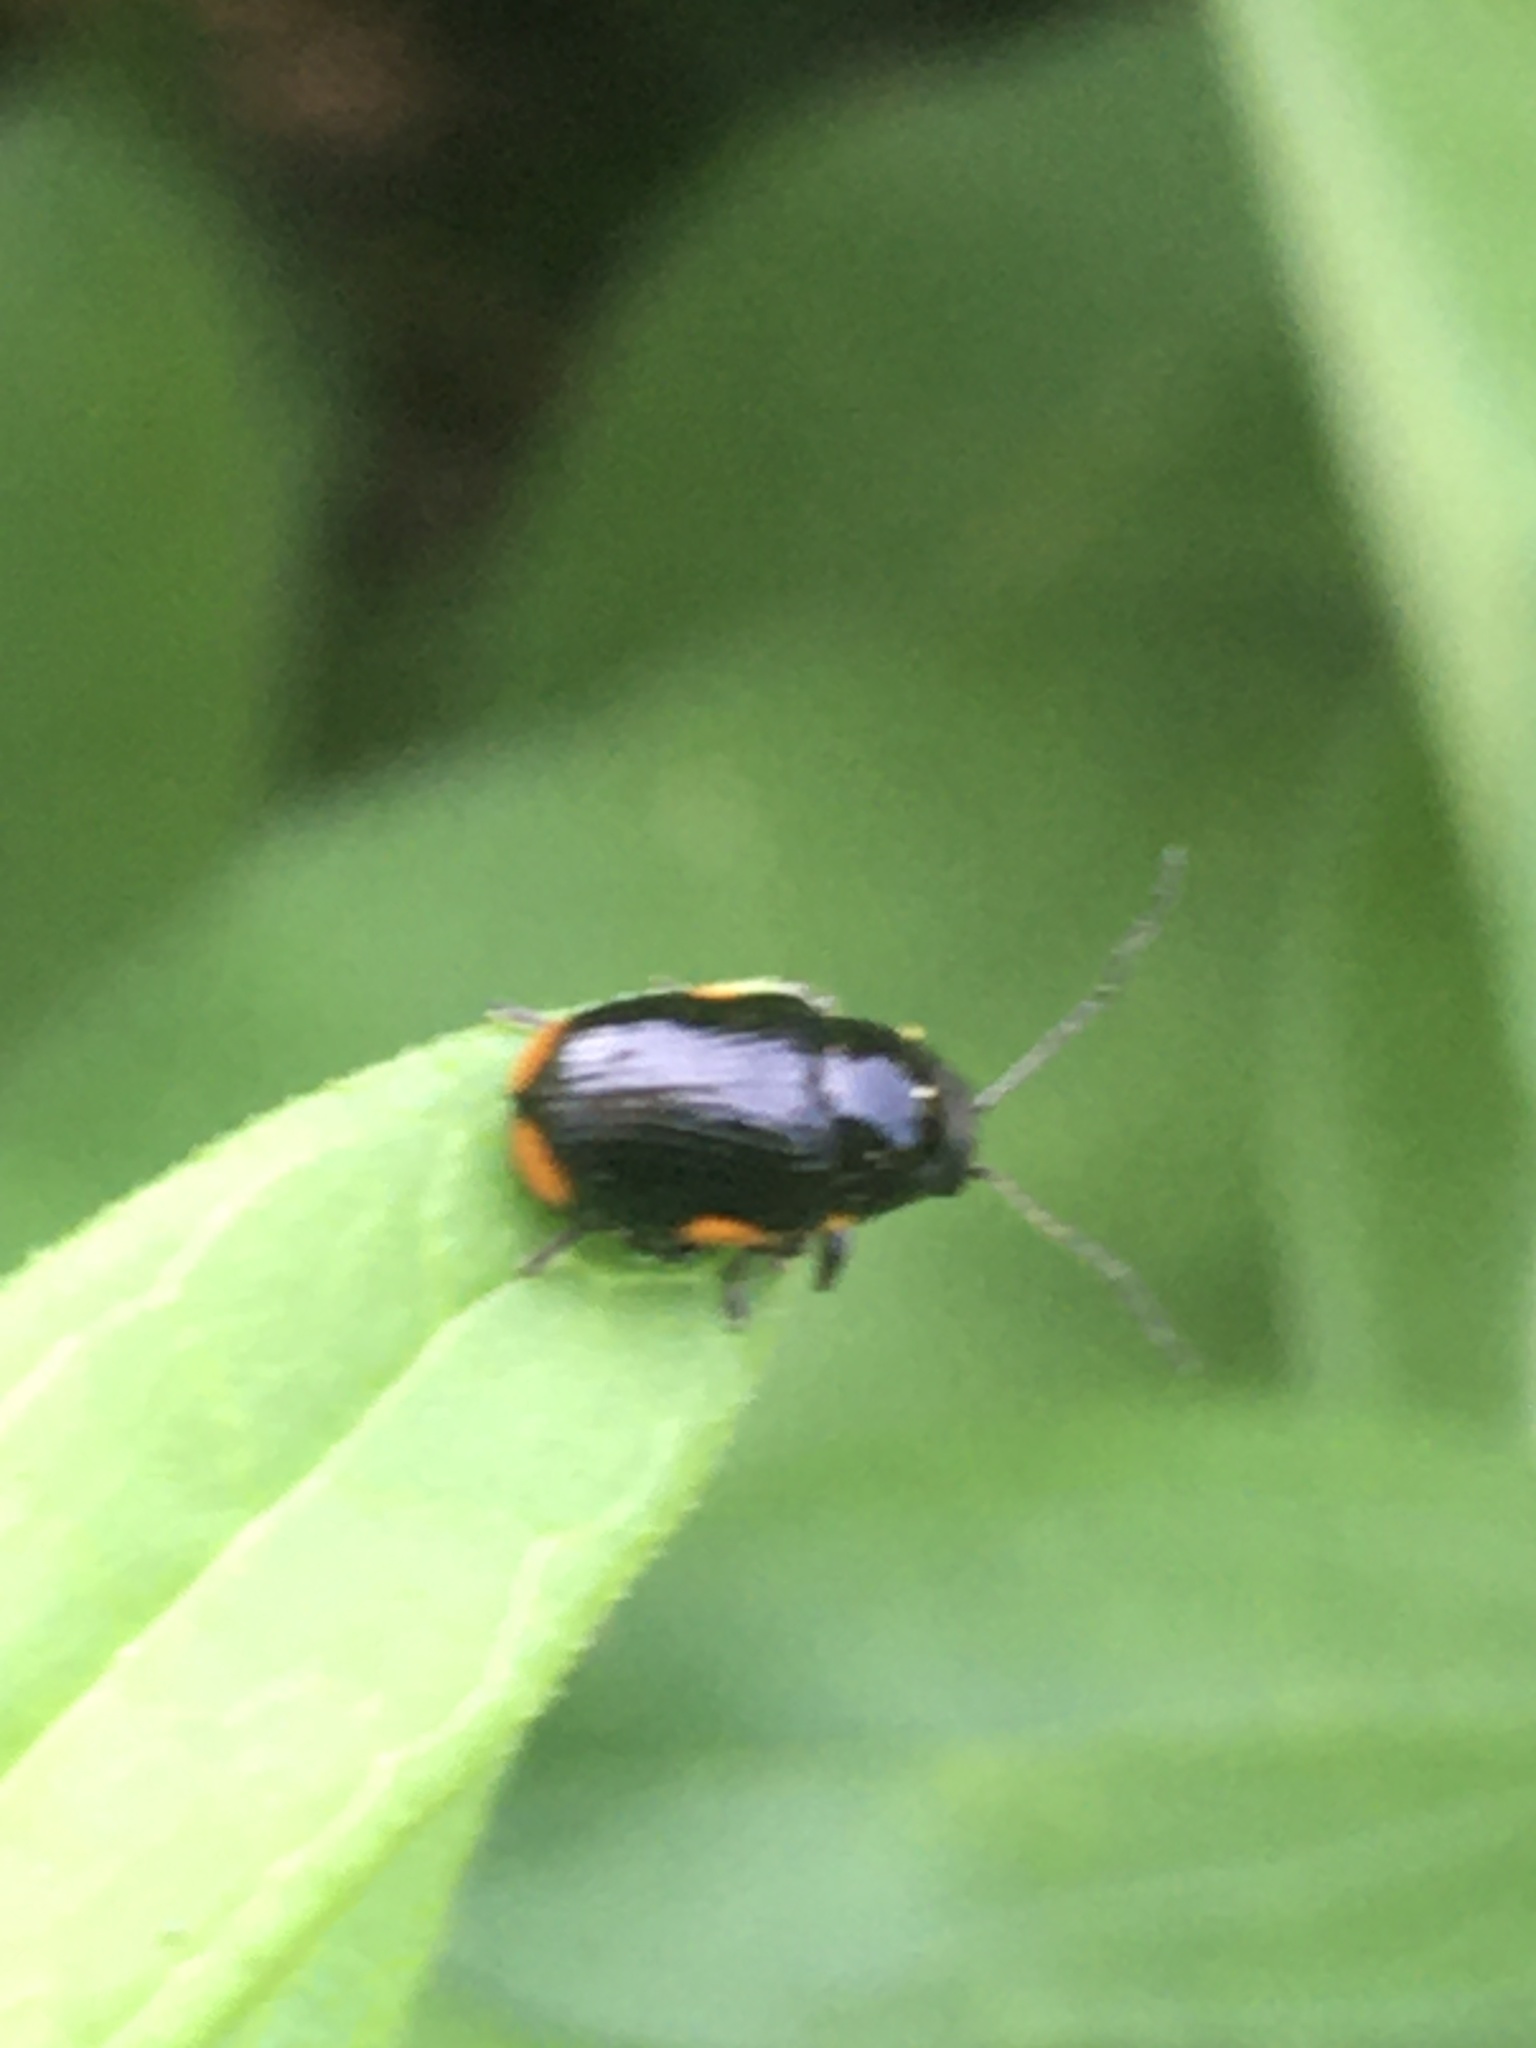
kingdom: Animalia
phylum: Arthropoda
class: Insecta
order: Coleoptera
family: Chrysomelidae
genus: Cryptocephalus
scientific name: Cryptocephalus moraei
